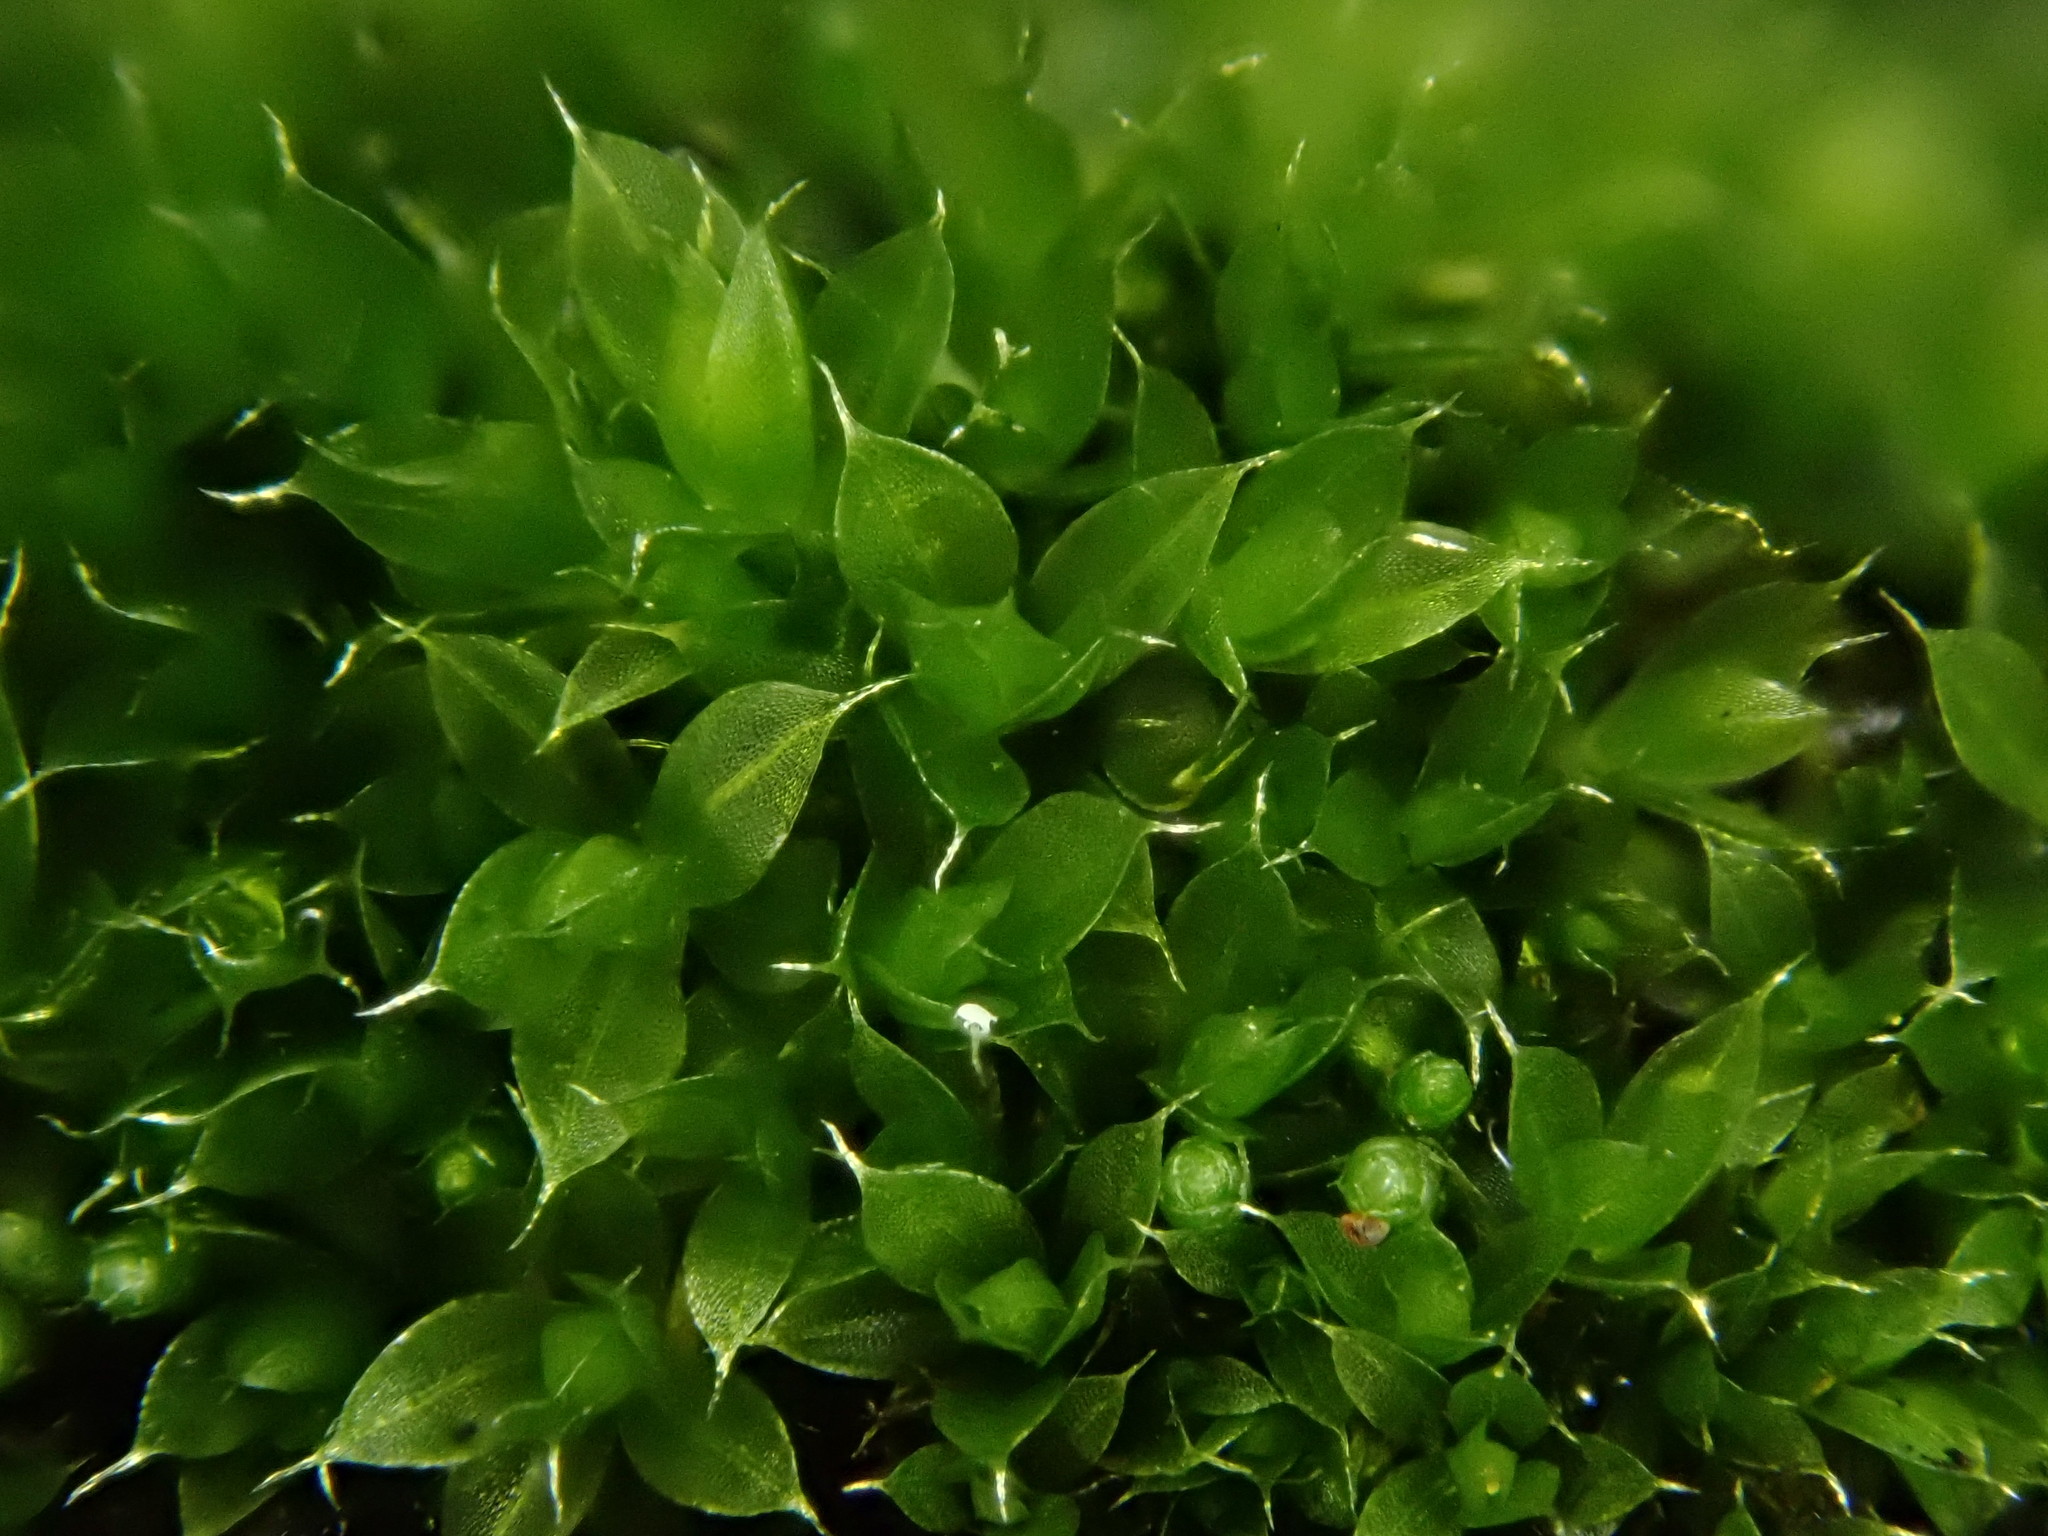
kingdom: Plantae
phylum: Bryophyta
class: Bryopsida
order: Bryales
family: Bryaceae
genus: Rosulabryum
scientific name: Rosulabryum capillare
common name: Capillary thread-moss
